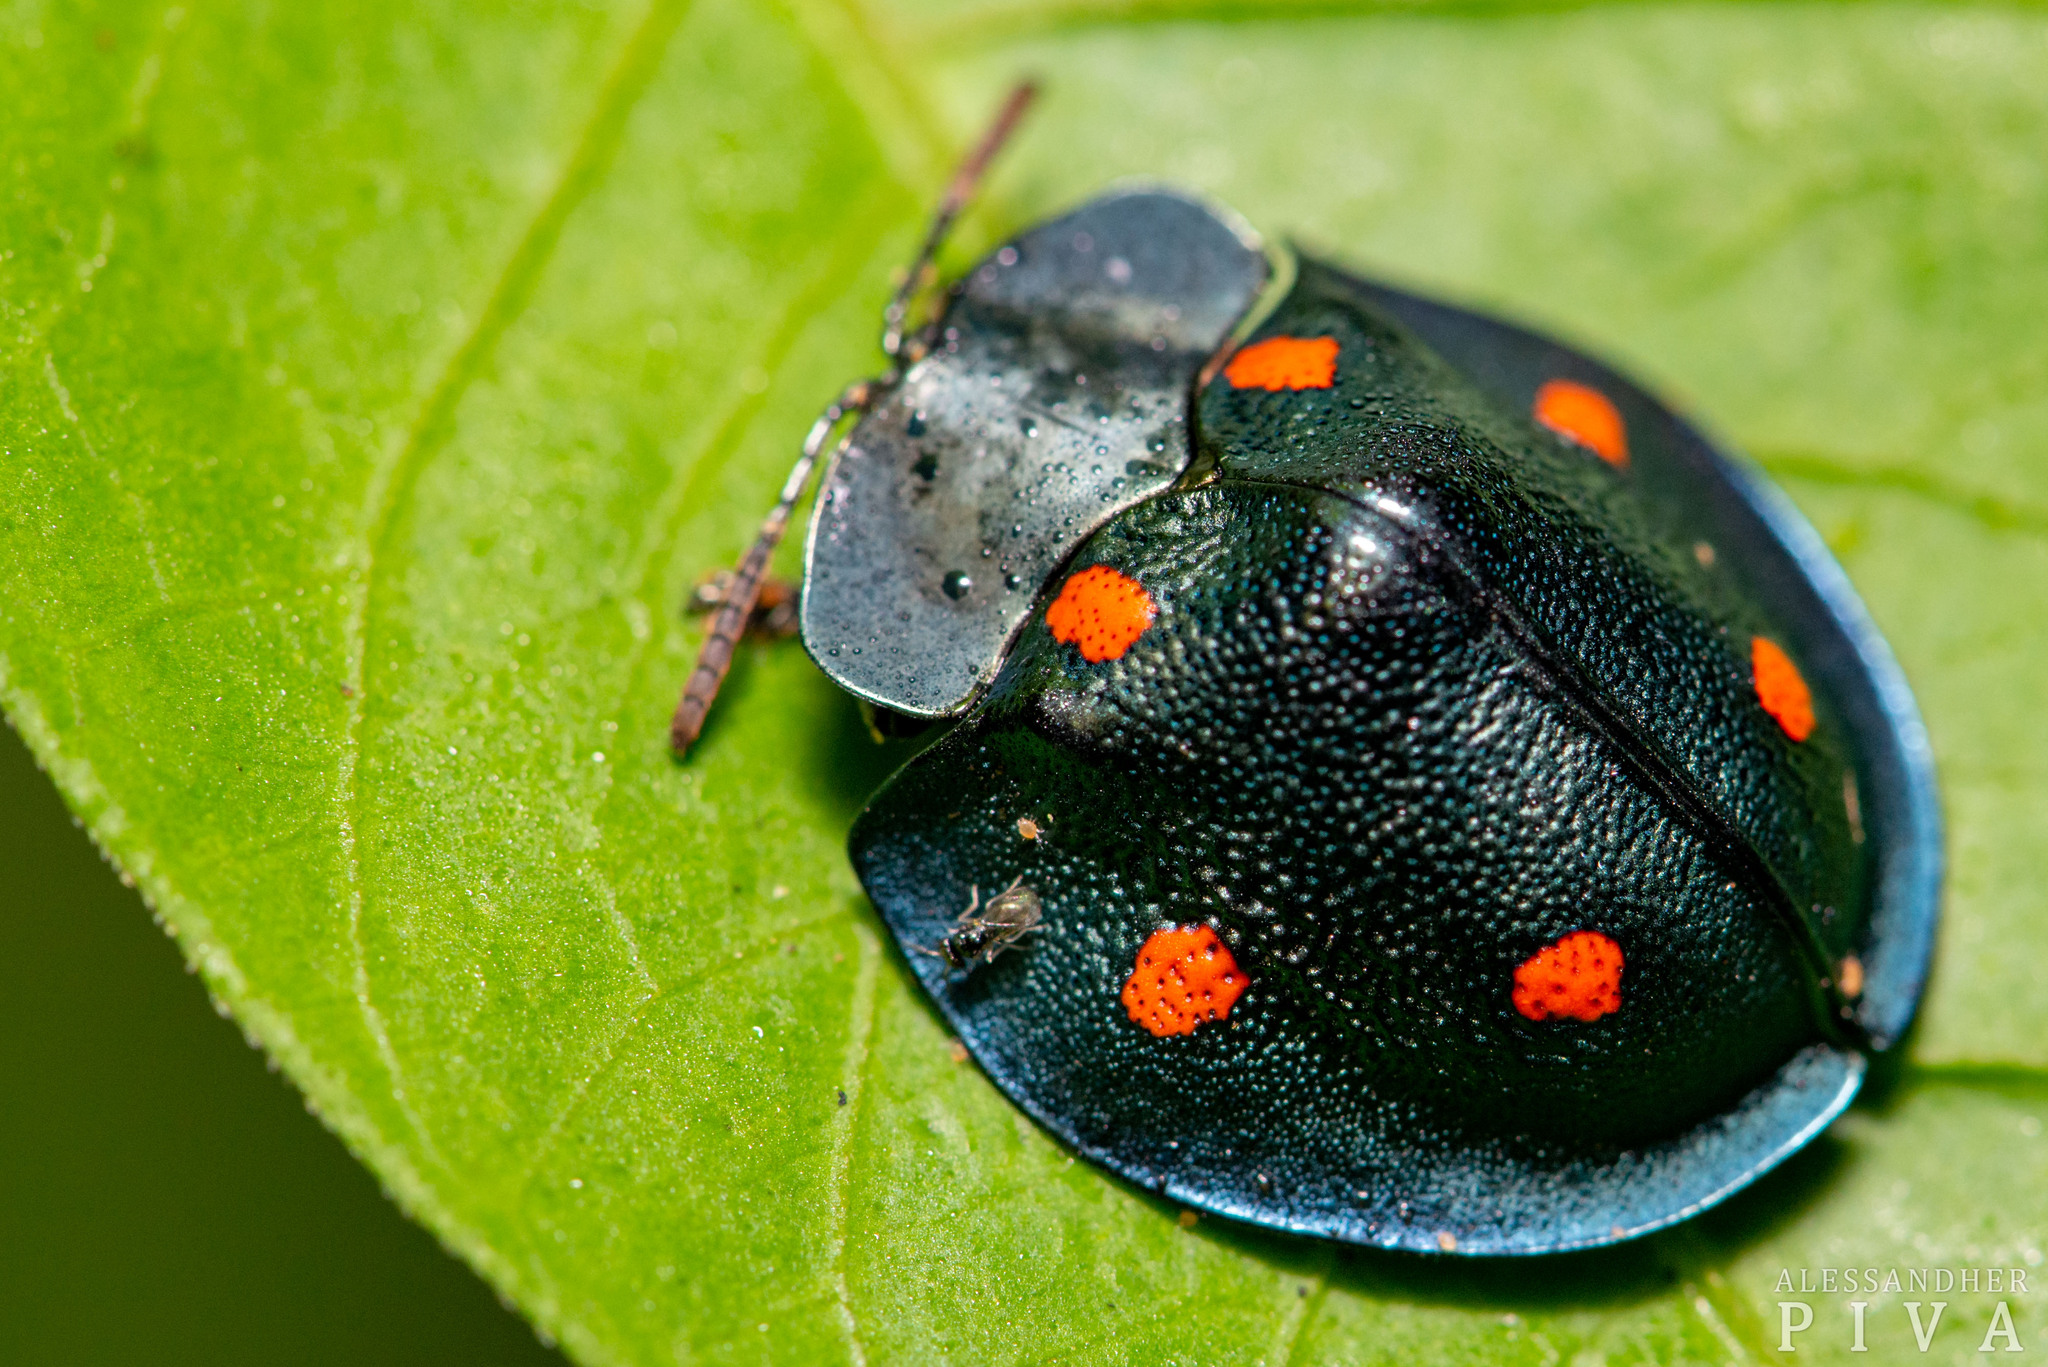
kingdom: Animalia
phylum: Arthropoda
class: Insecta
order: Coleoptera
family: Chrysomelidae
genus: Cyrtonota
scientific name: Cyrtonota sexpustulata
